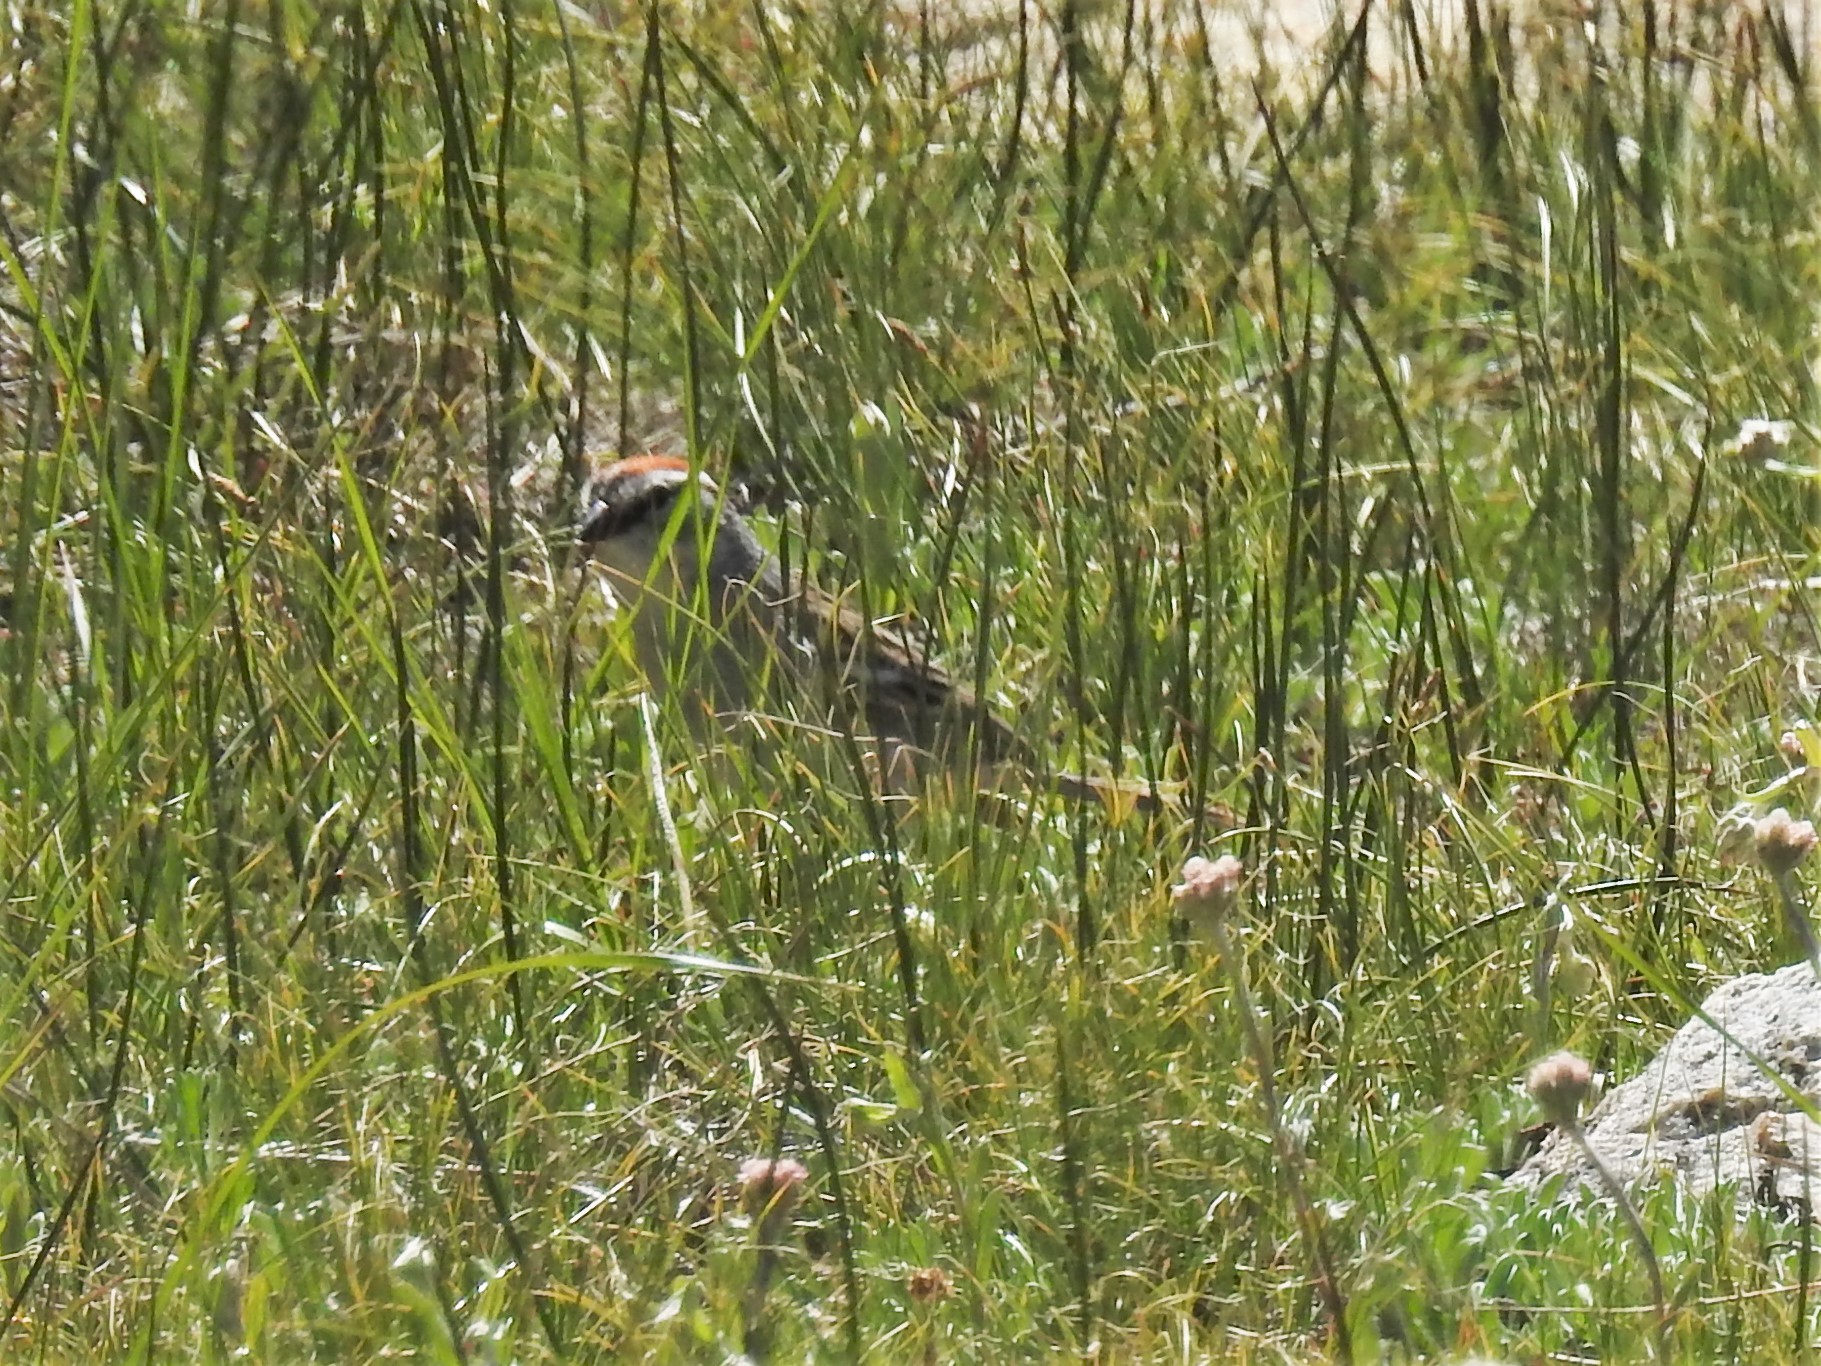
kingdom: Animalia
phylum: Chordata
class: Aves
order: Passeriformes
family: Passerellidae
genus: Spizella
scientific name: Spizella passerina
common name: Chipping sparrow
